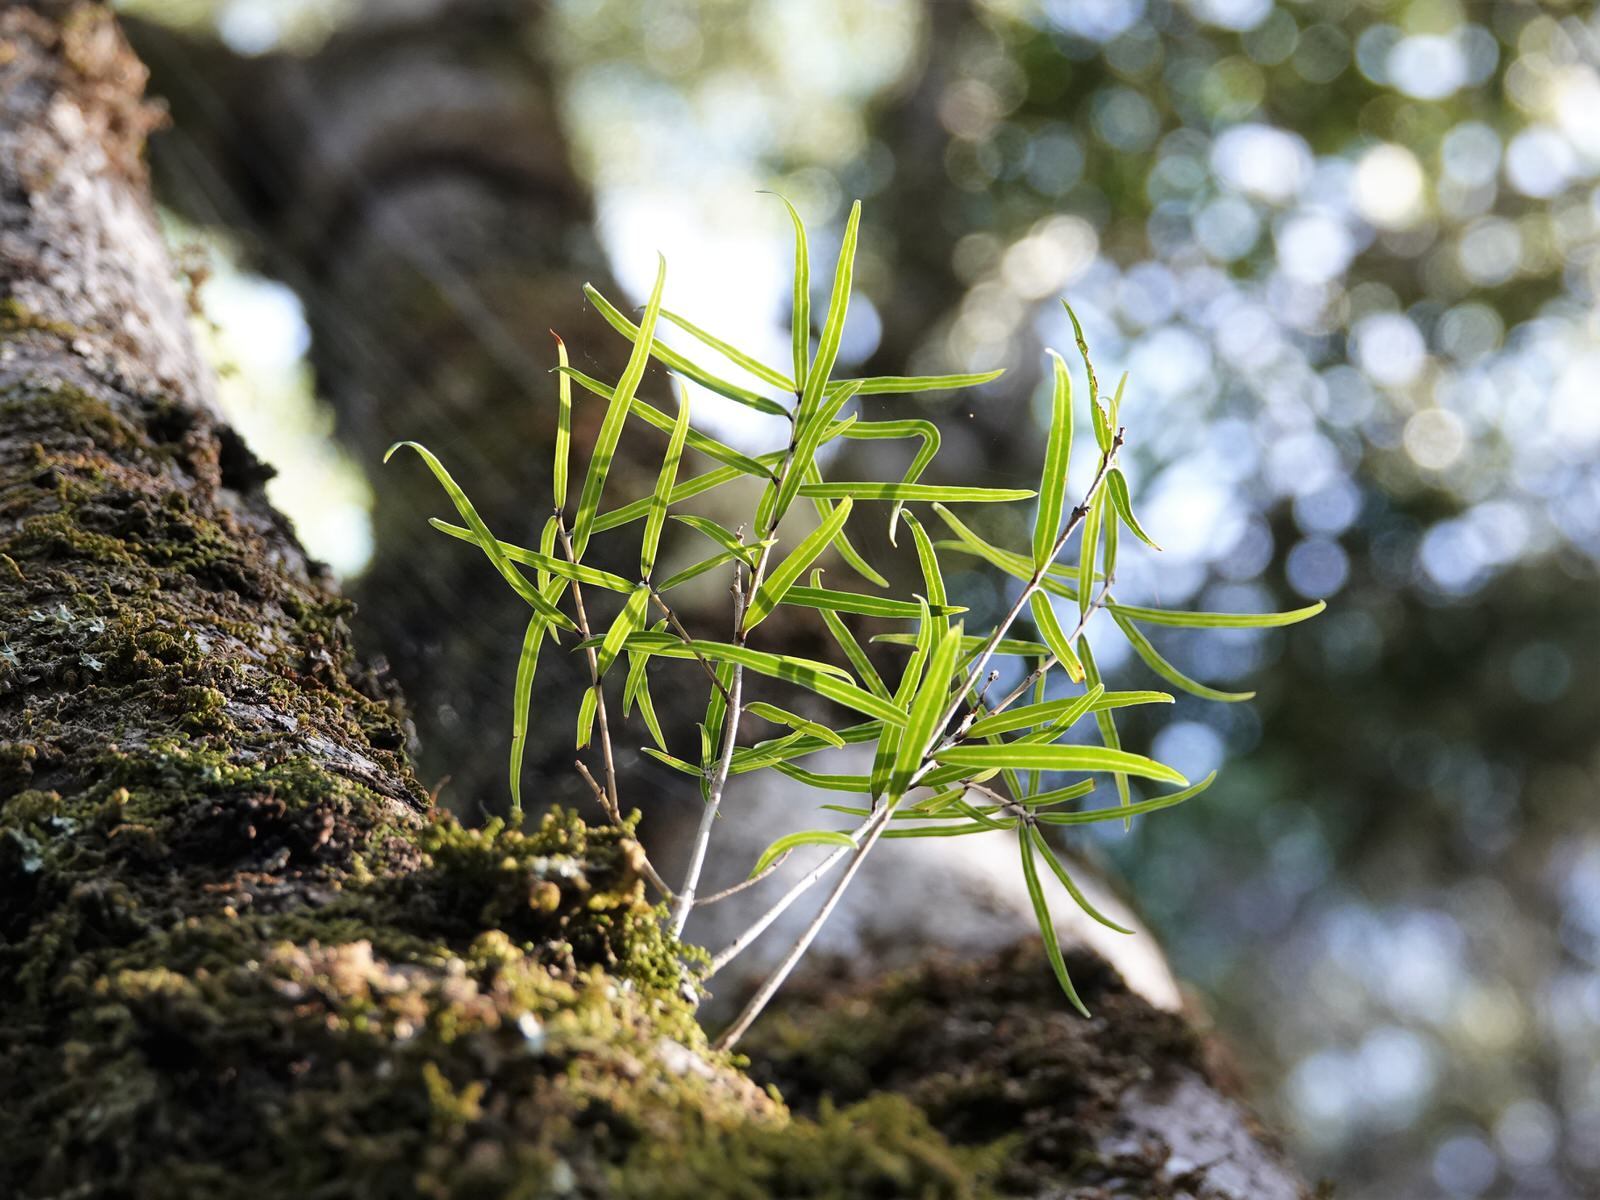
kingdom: Plantae
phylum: Tracheophyta
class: Magnoliopsida
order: Lamiales
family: Oleaceae
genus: Nestegis
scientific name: Nestegis montana
